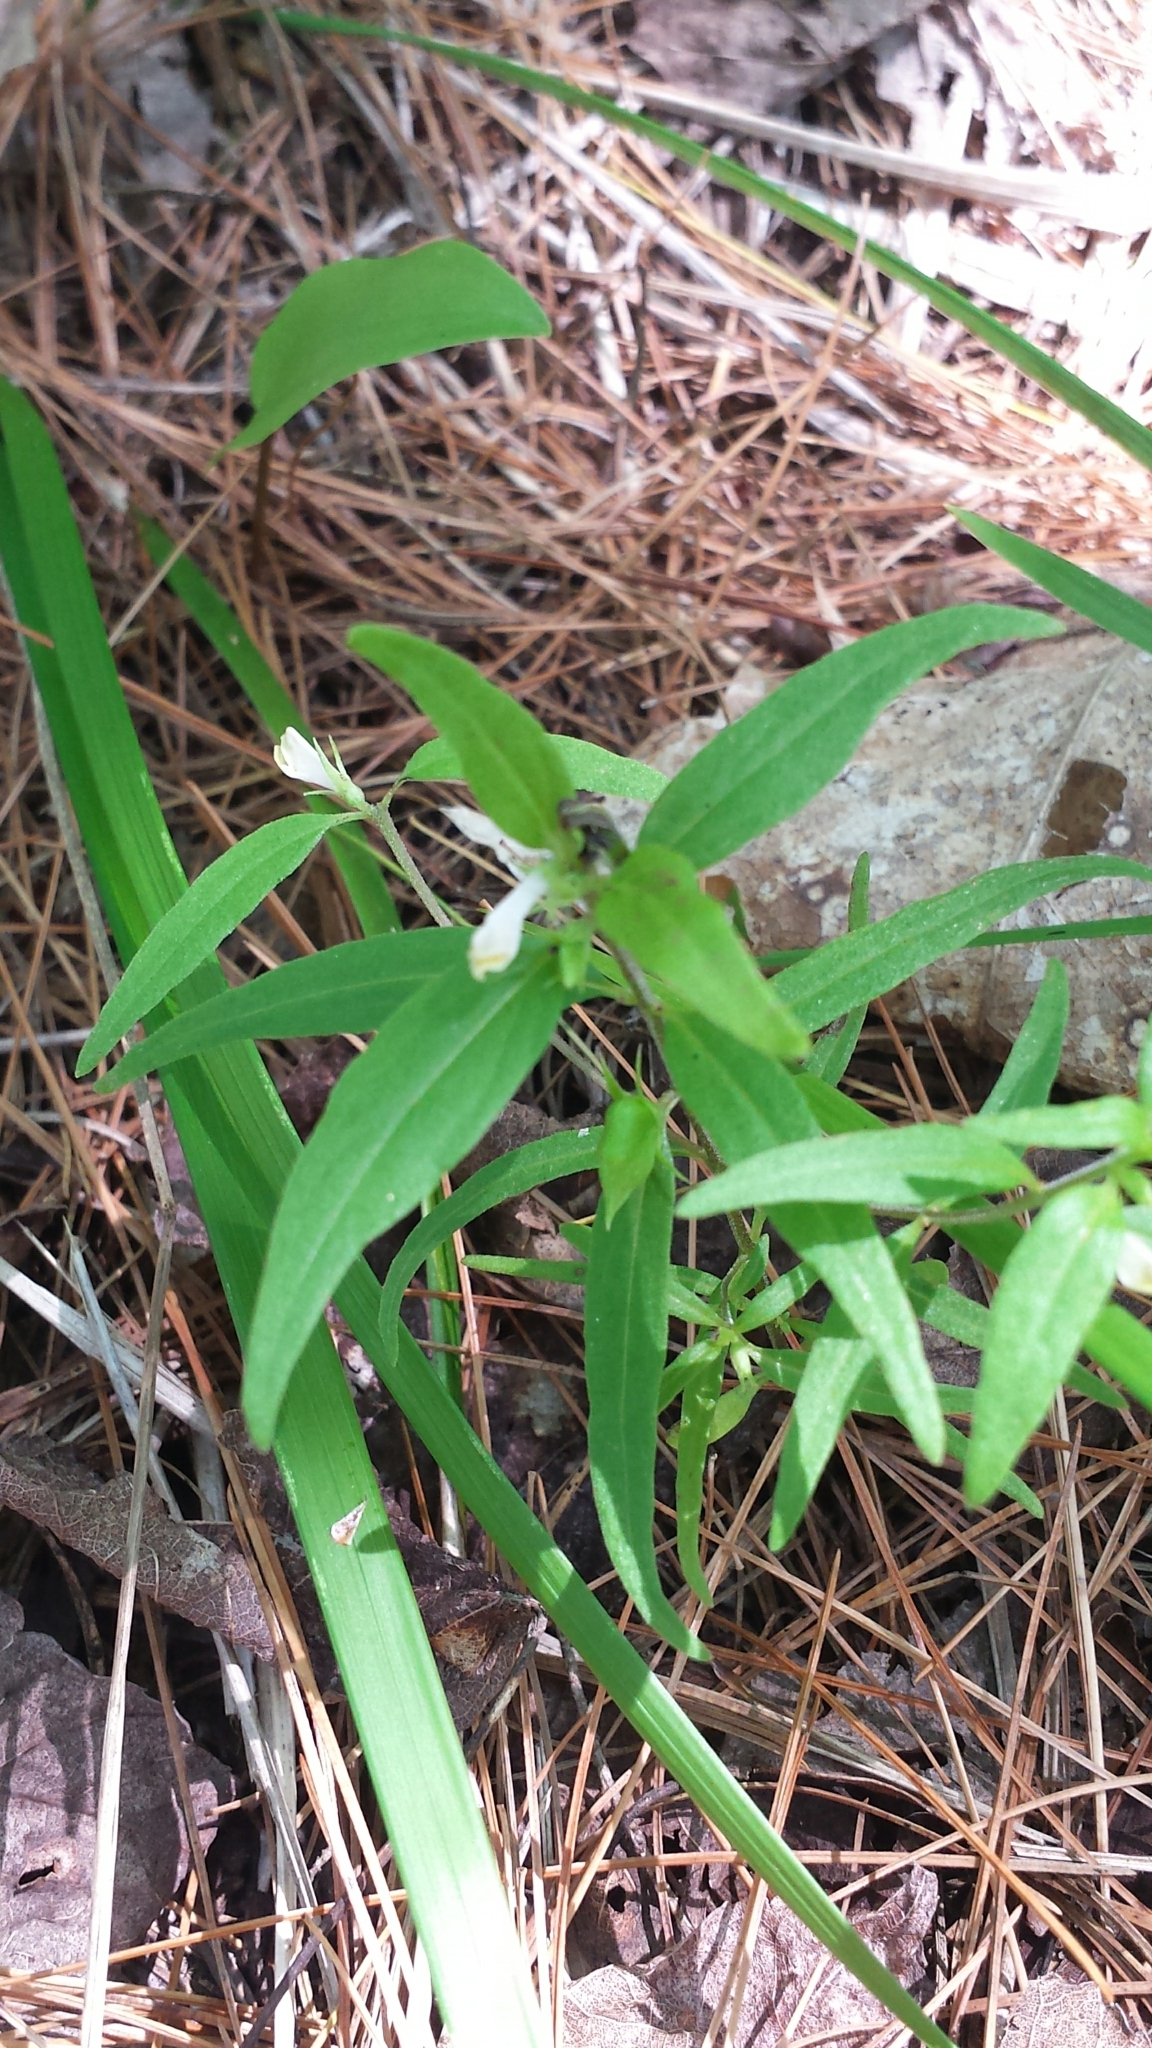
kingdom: Plantae
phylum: Tracheophyta
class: Magnoliopsida
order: Lamiales
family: Orobanchaceae
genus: Melampyrum
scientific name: Melampyrum lineare
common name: American cow-wheat
